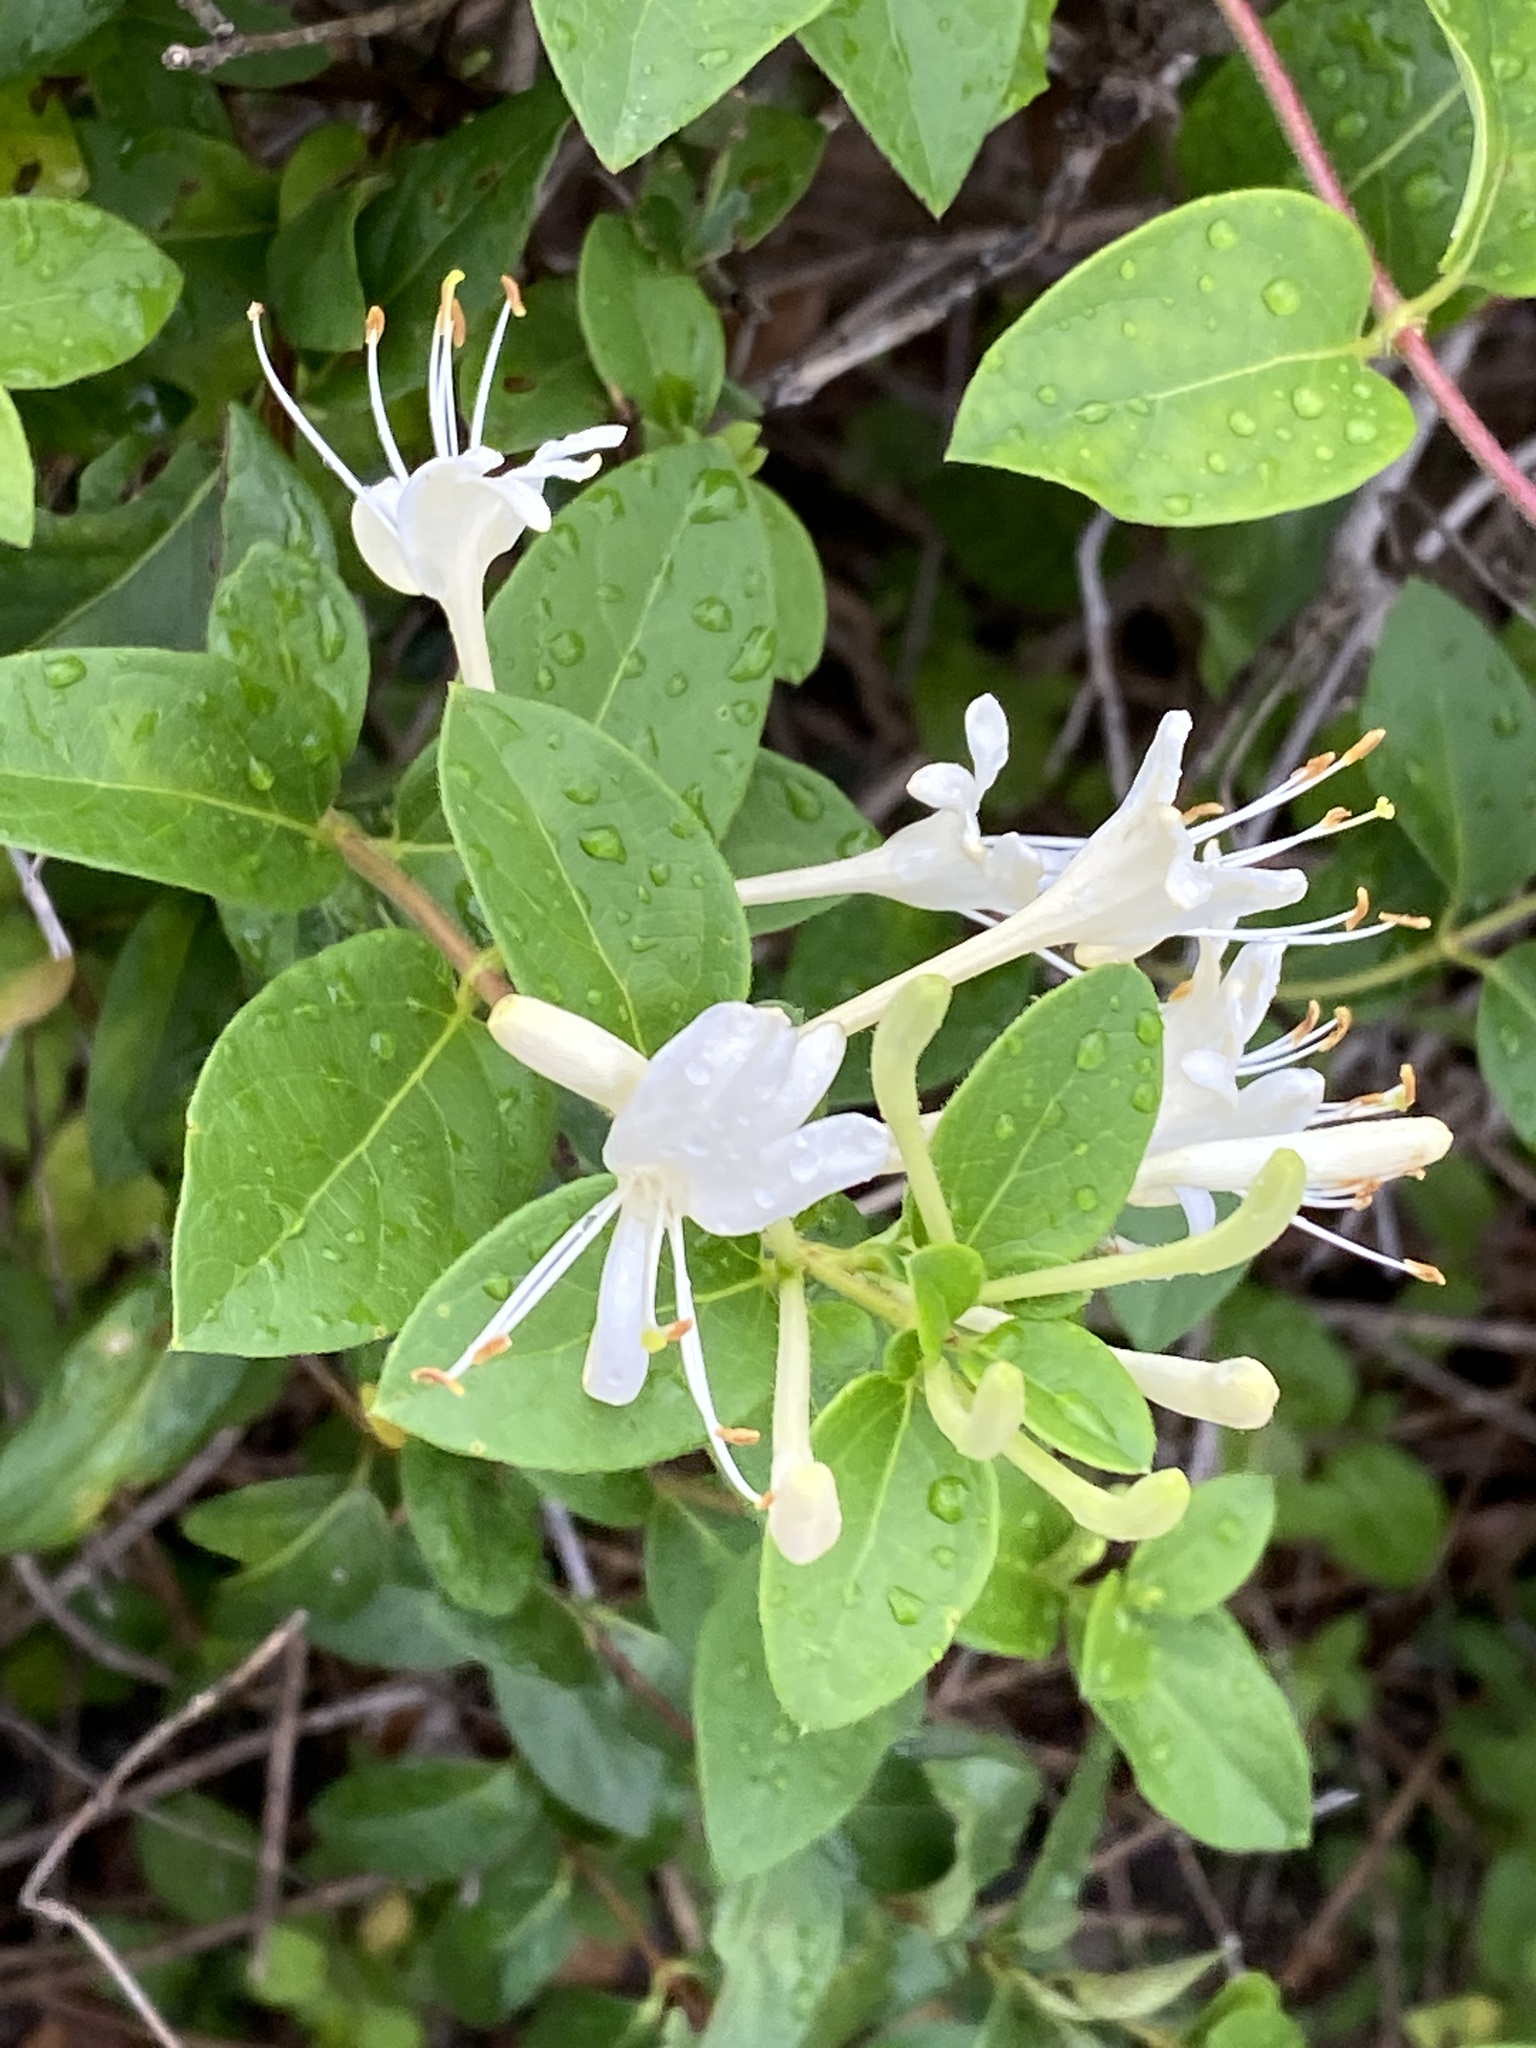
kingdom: Plantae
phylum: Tracheophyta
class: Magnoliopsida
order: Dipsacales
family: Caprifoliaceae
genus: Lonicera
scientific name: Lonicera japonica
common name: Japanese honeysuckle
